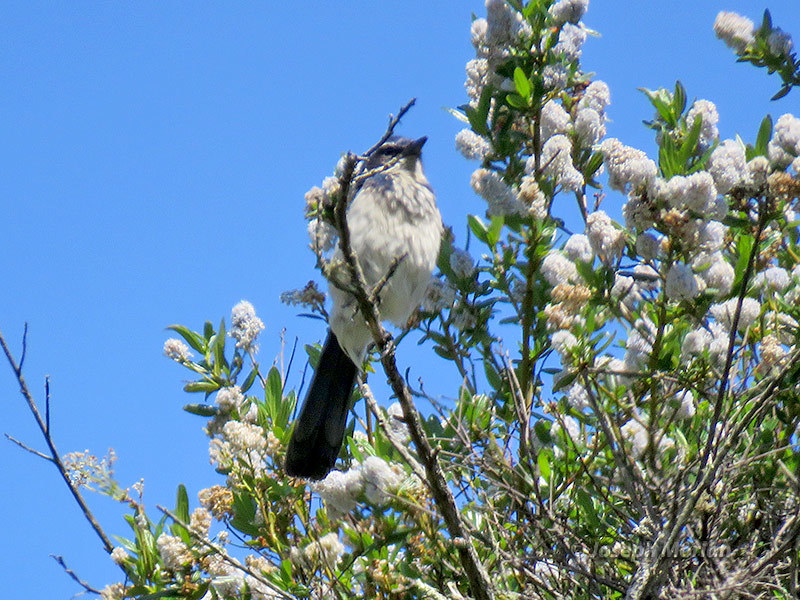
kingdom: Animalia
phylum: Chordata
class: Aves
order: Passeriformes
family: Corvidae
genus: Aphelocoma
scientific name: Aphelocoma californica
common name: California scrub-jay
